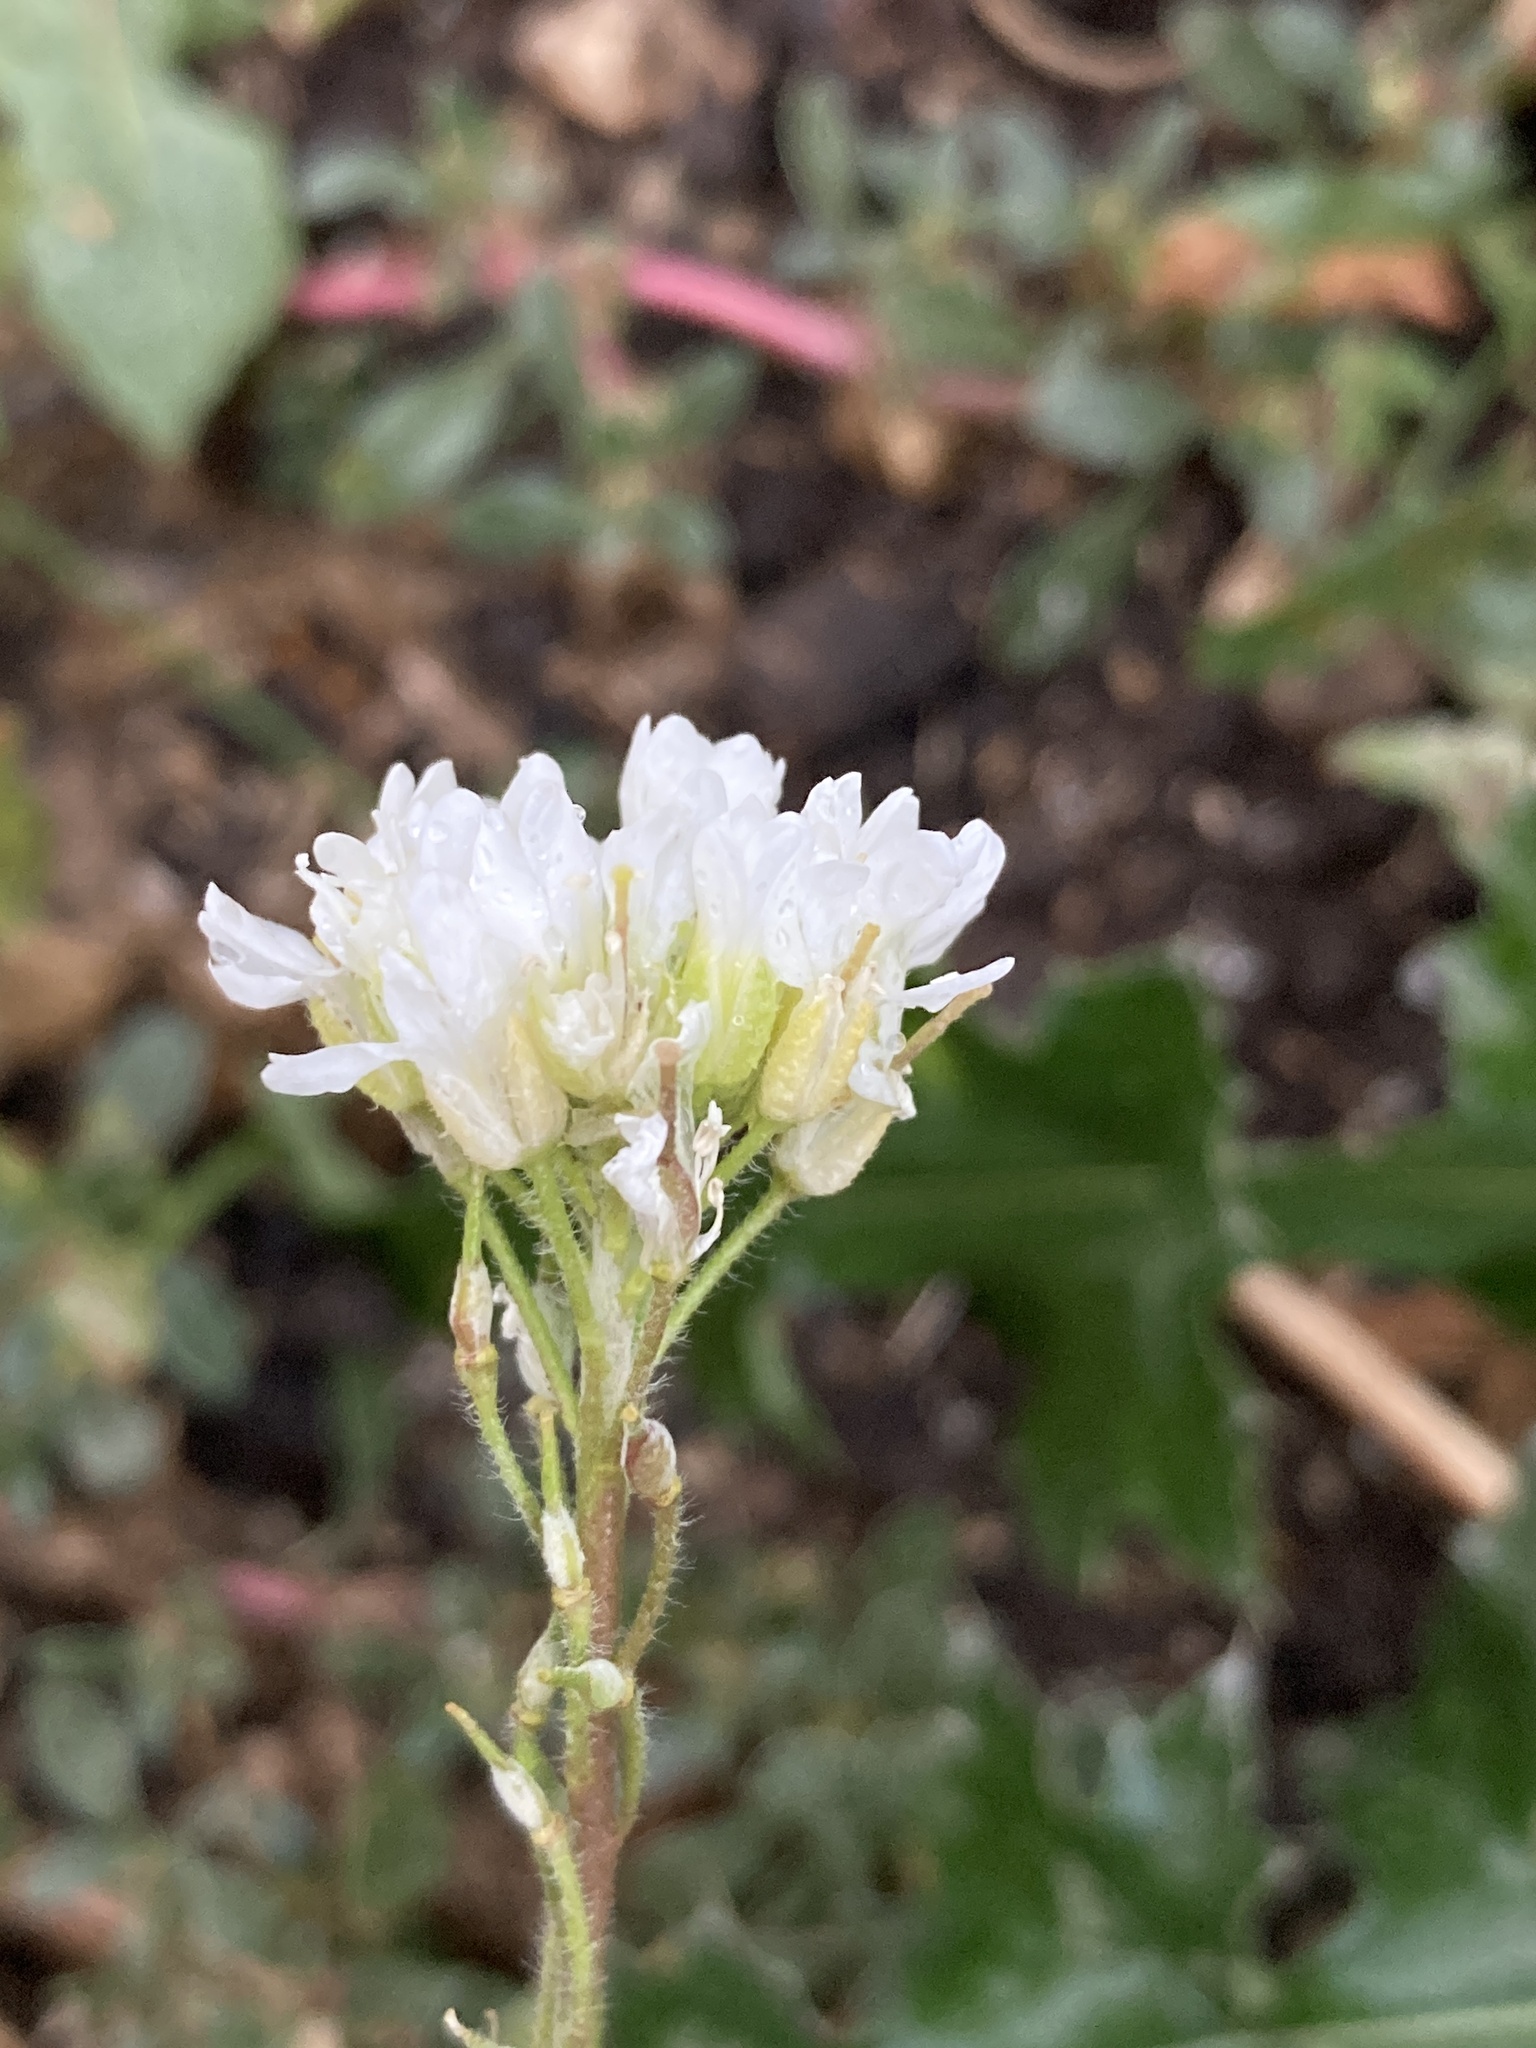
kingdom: Plantae
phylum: Tracheophyta
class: Magnoliopsida
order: Brassicales
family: Brassicaceae
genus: Berteroa
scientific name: Berteroa incana
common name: Hoary alison
